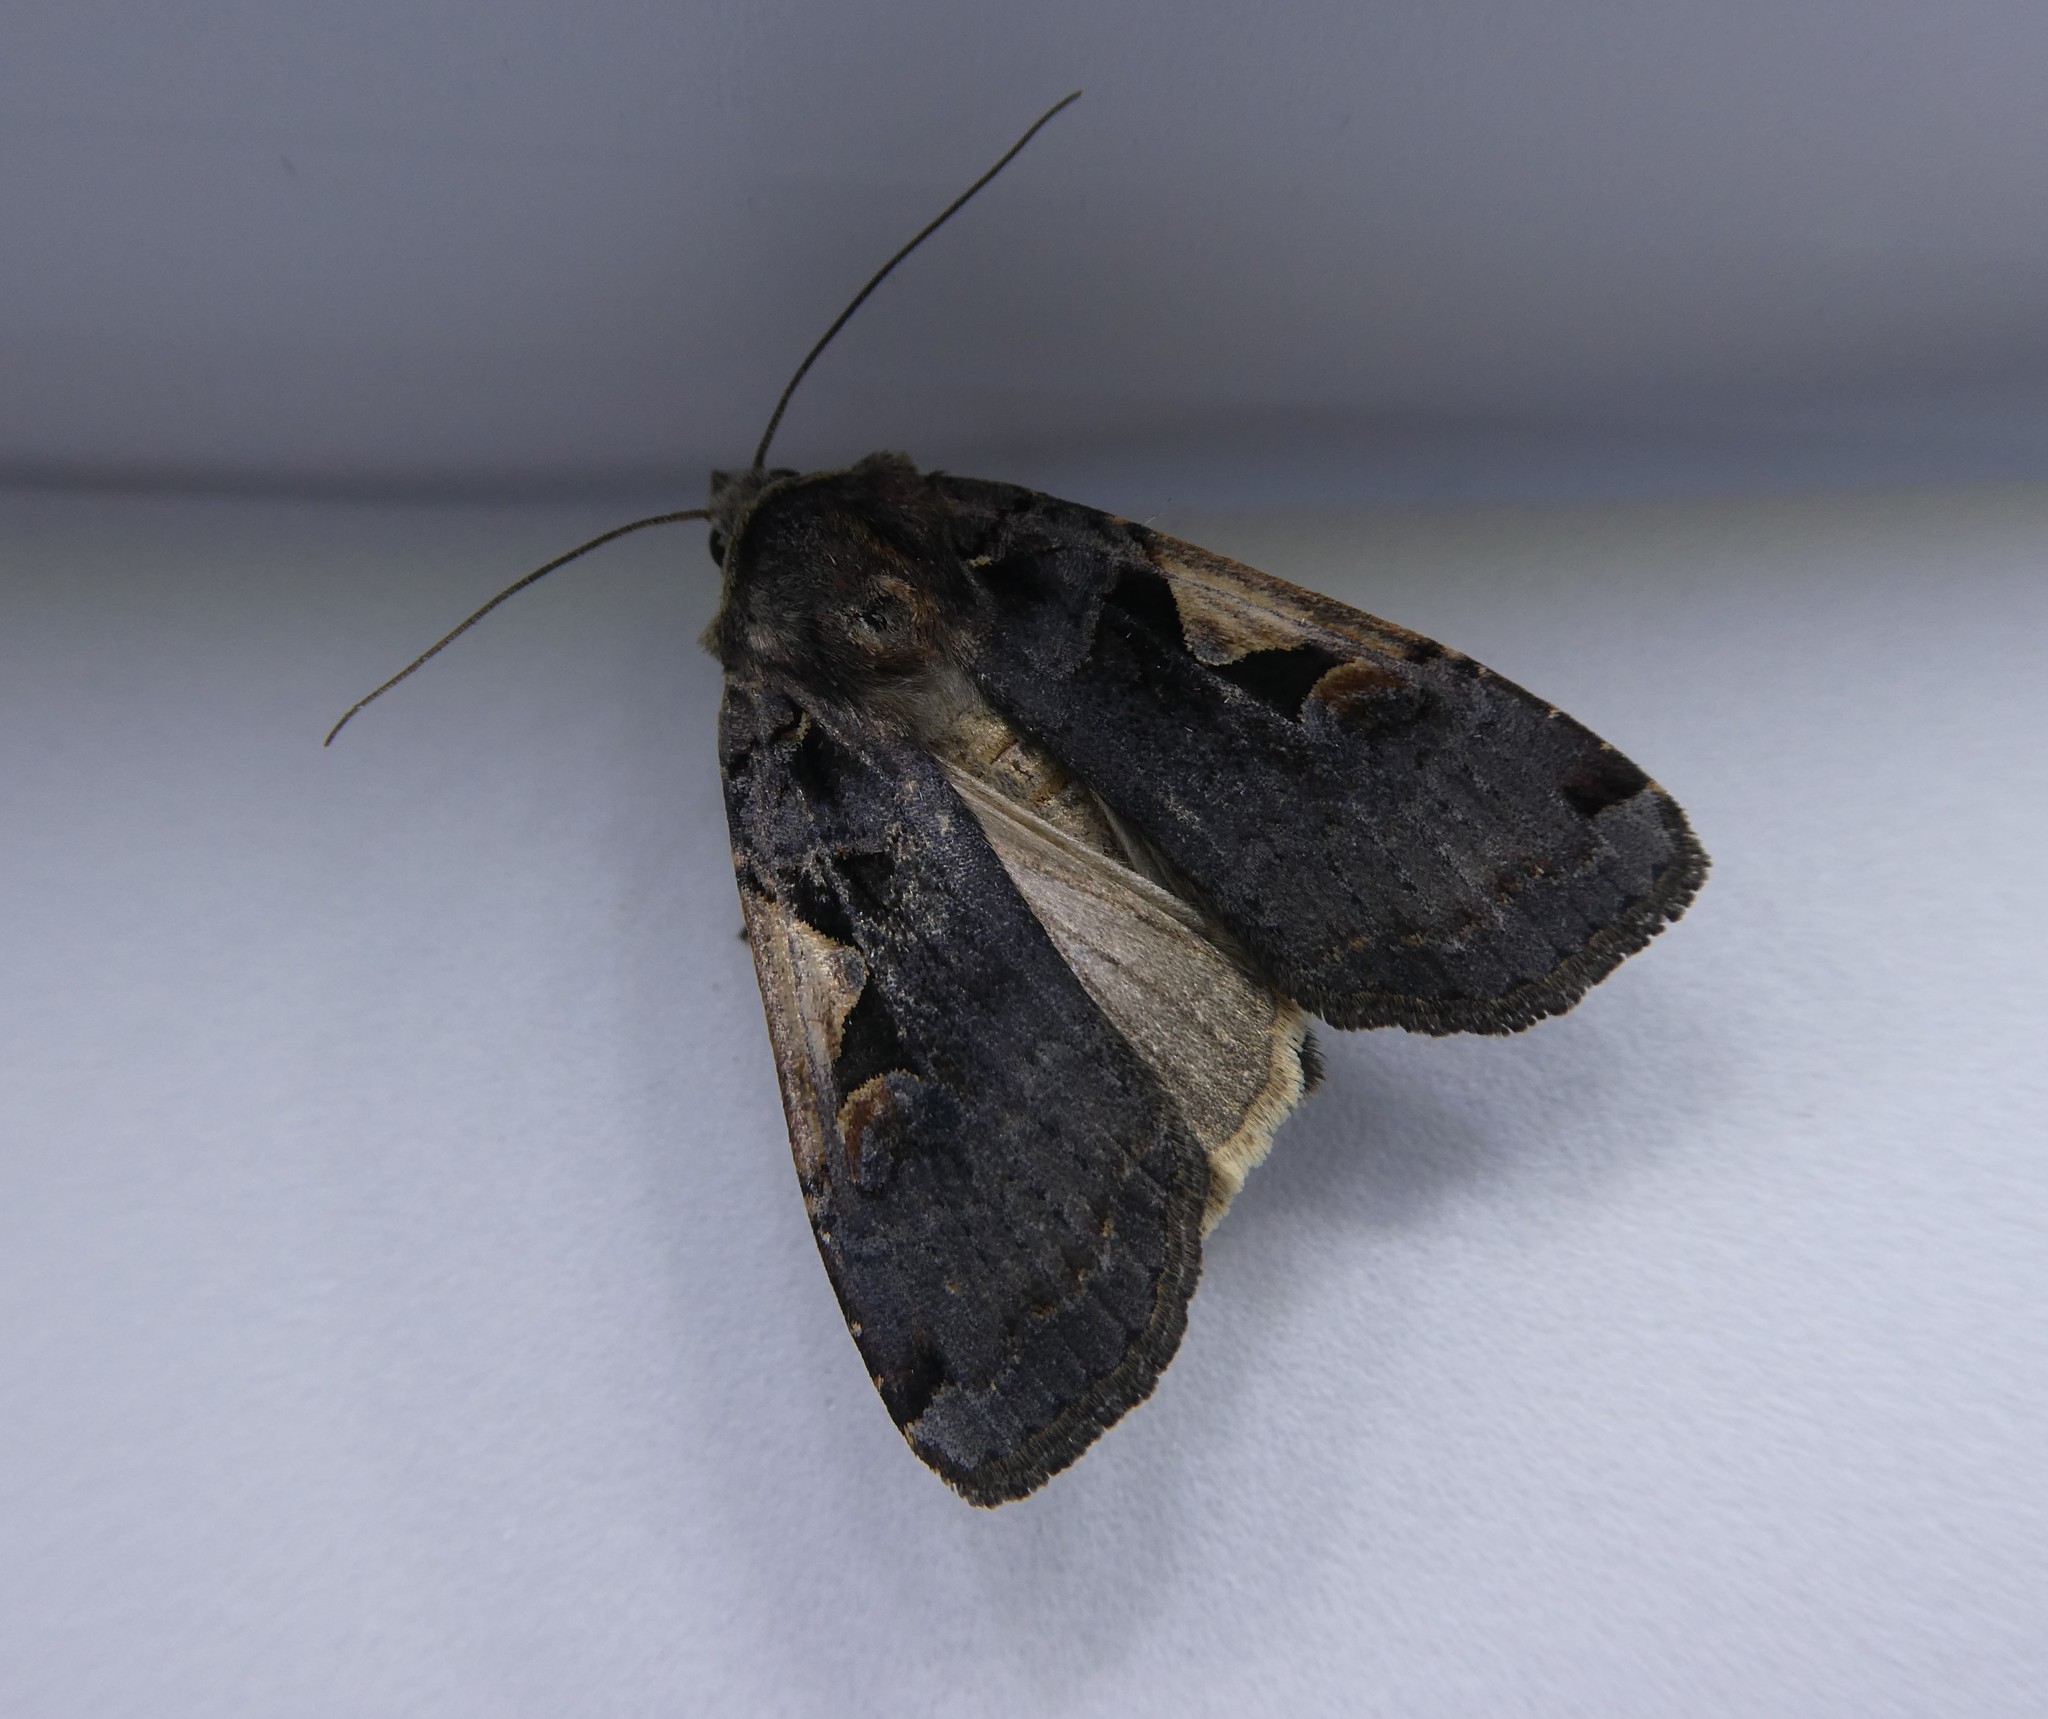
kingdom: Animalia
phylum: Arthropoda
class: Insecta
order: Lepidoptera
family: Noctuidae
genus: Xestia
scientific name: Xestia
